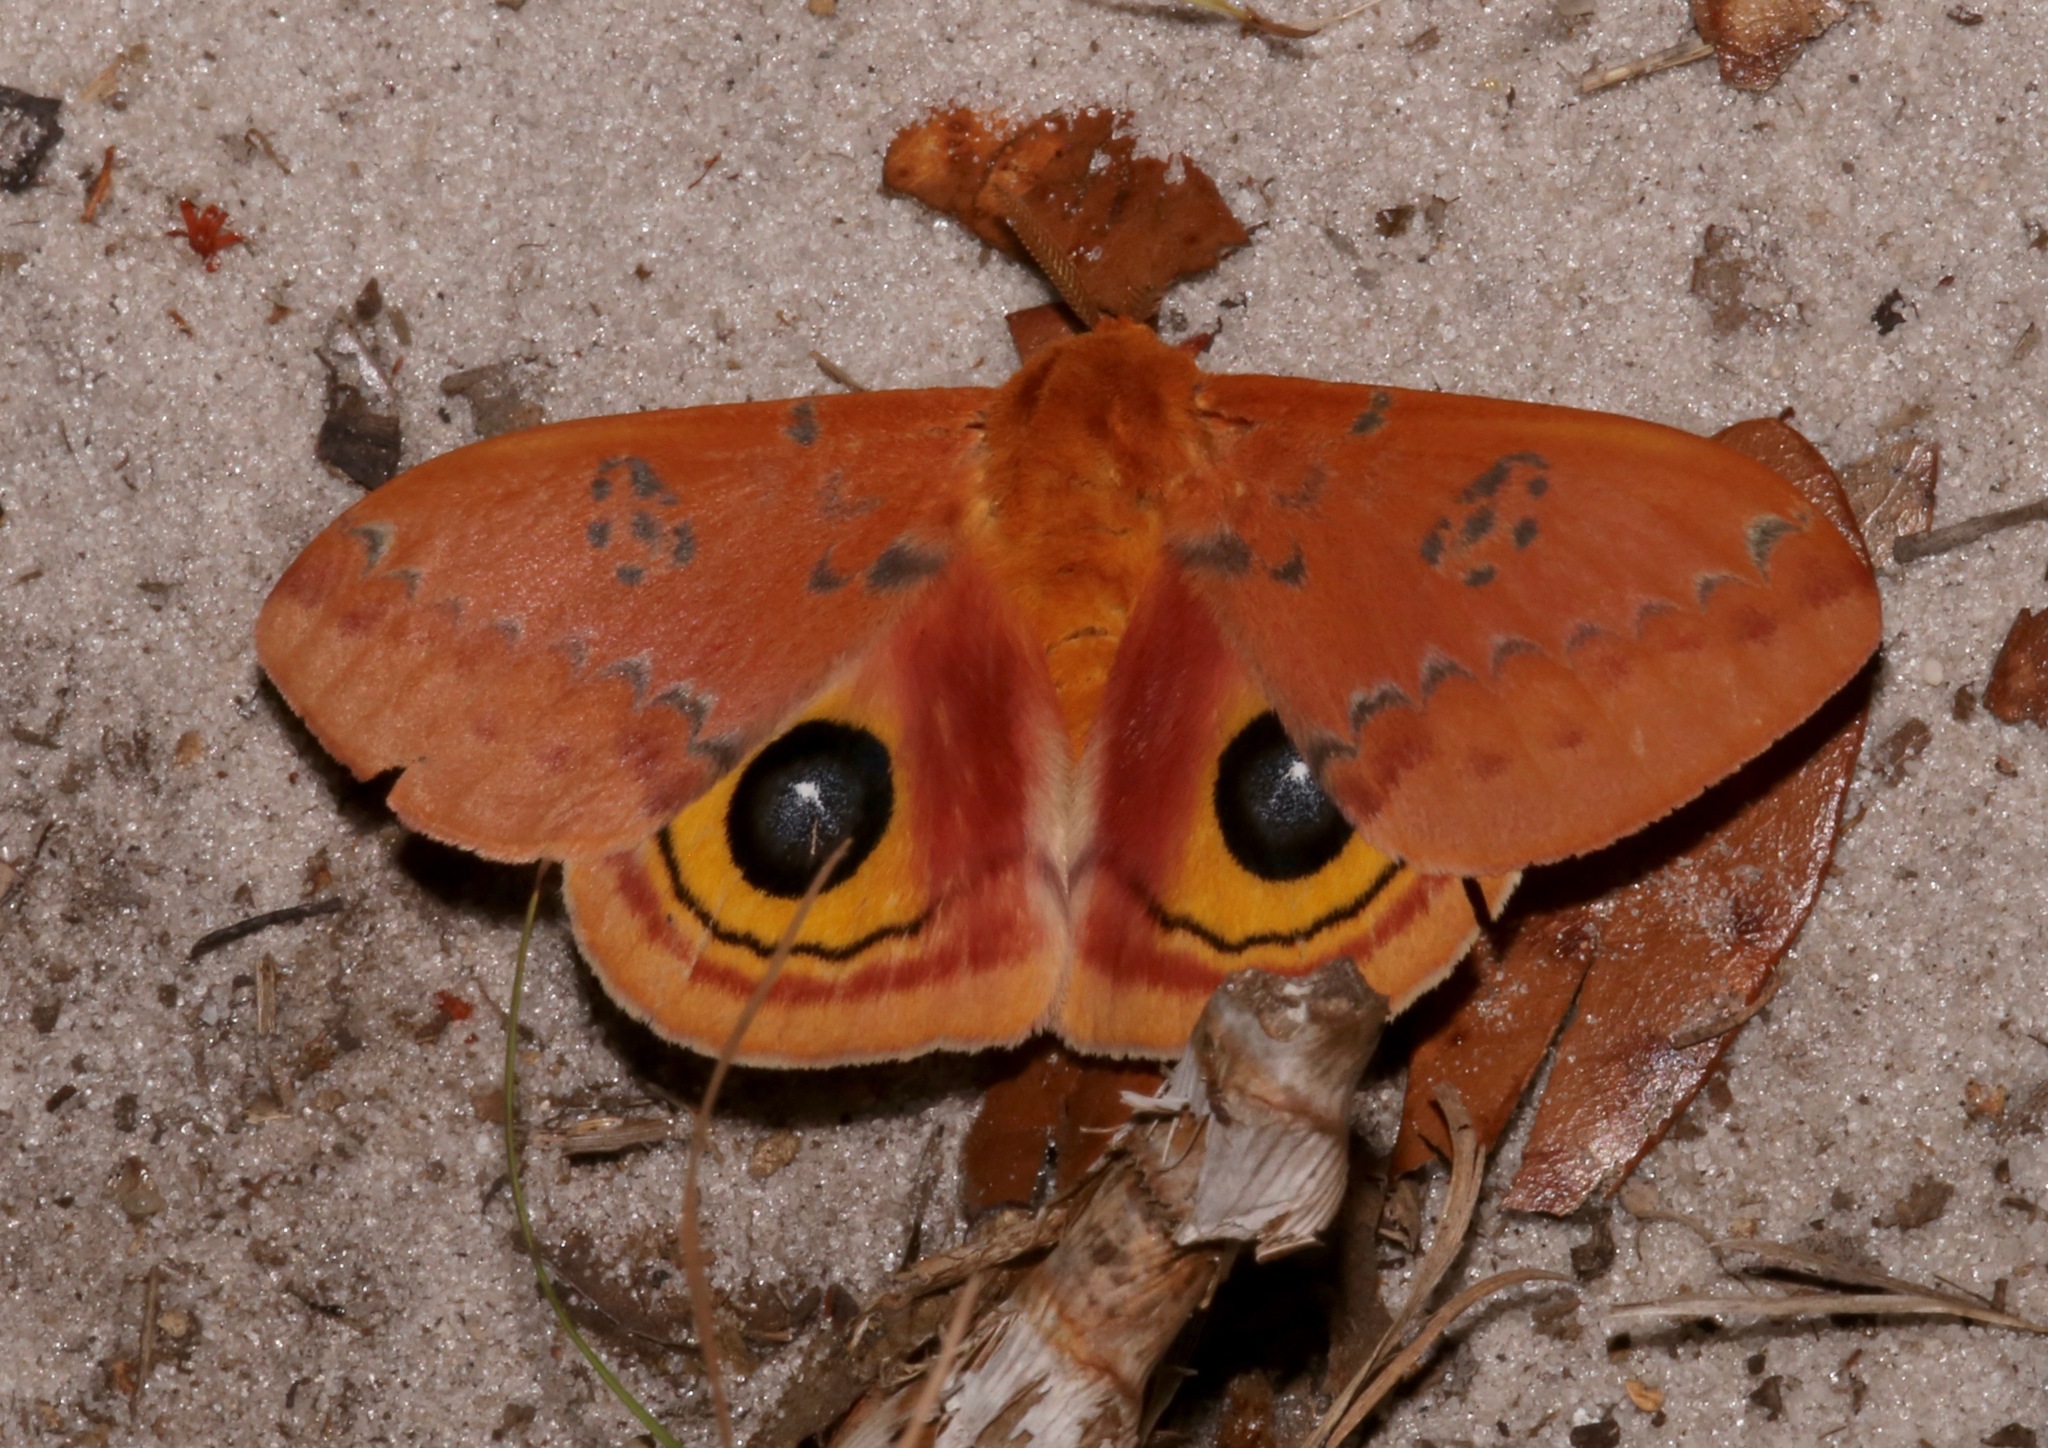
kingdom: Animalia
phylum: Arthropoda
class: Insecta
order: Lepidoptera
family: Saturniidae
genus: Automeris
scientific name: Automeris io
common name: Io moth
